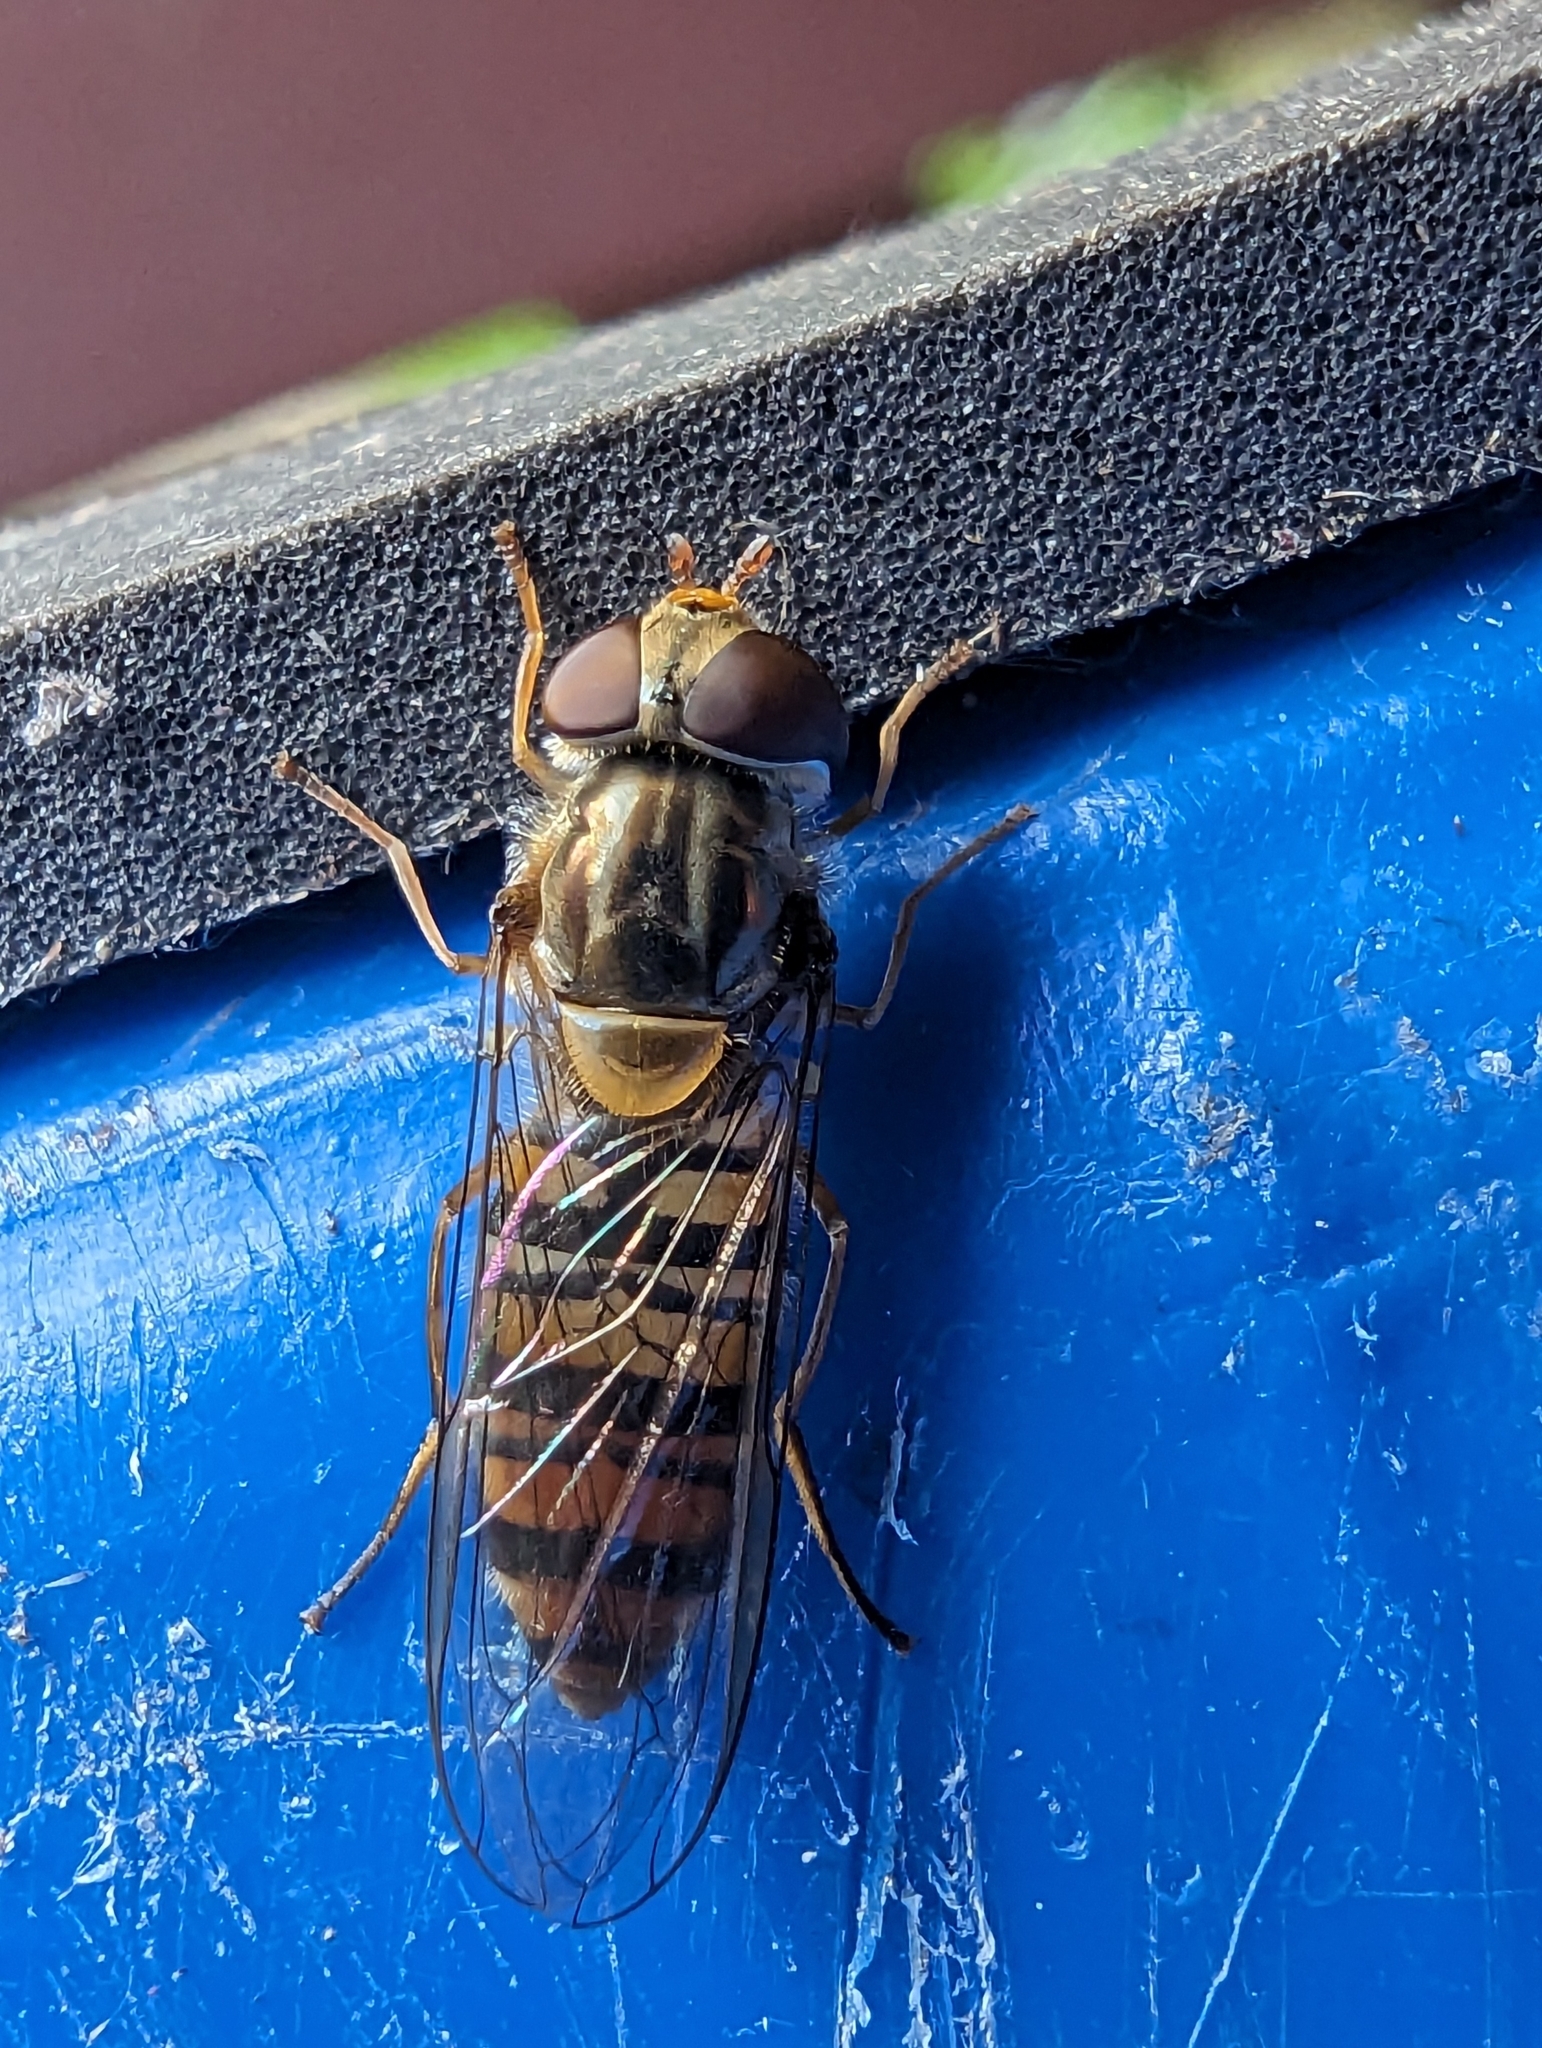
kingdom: Animalia
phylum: Arthropoda
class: Insecta
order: Diptera
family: Syrphidae
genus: Episyrphus
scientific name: Episyrphus balteatus
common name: Marmalade hoverfly
